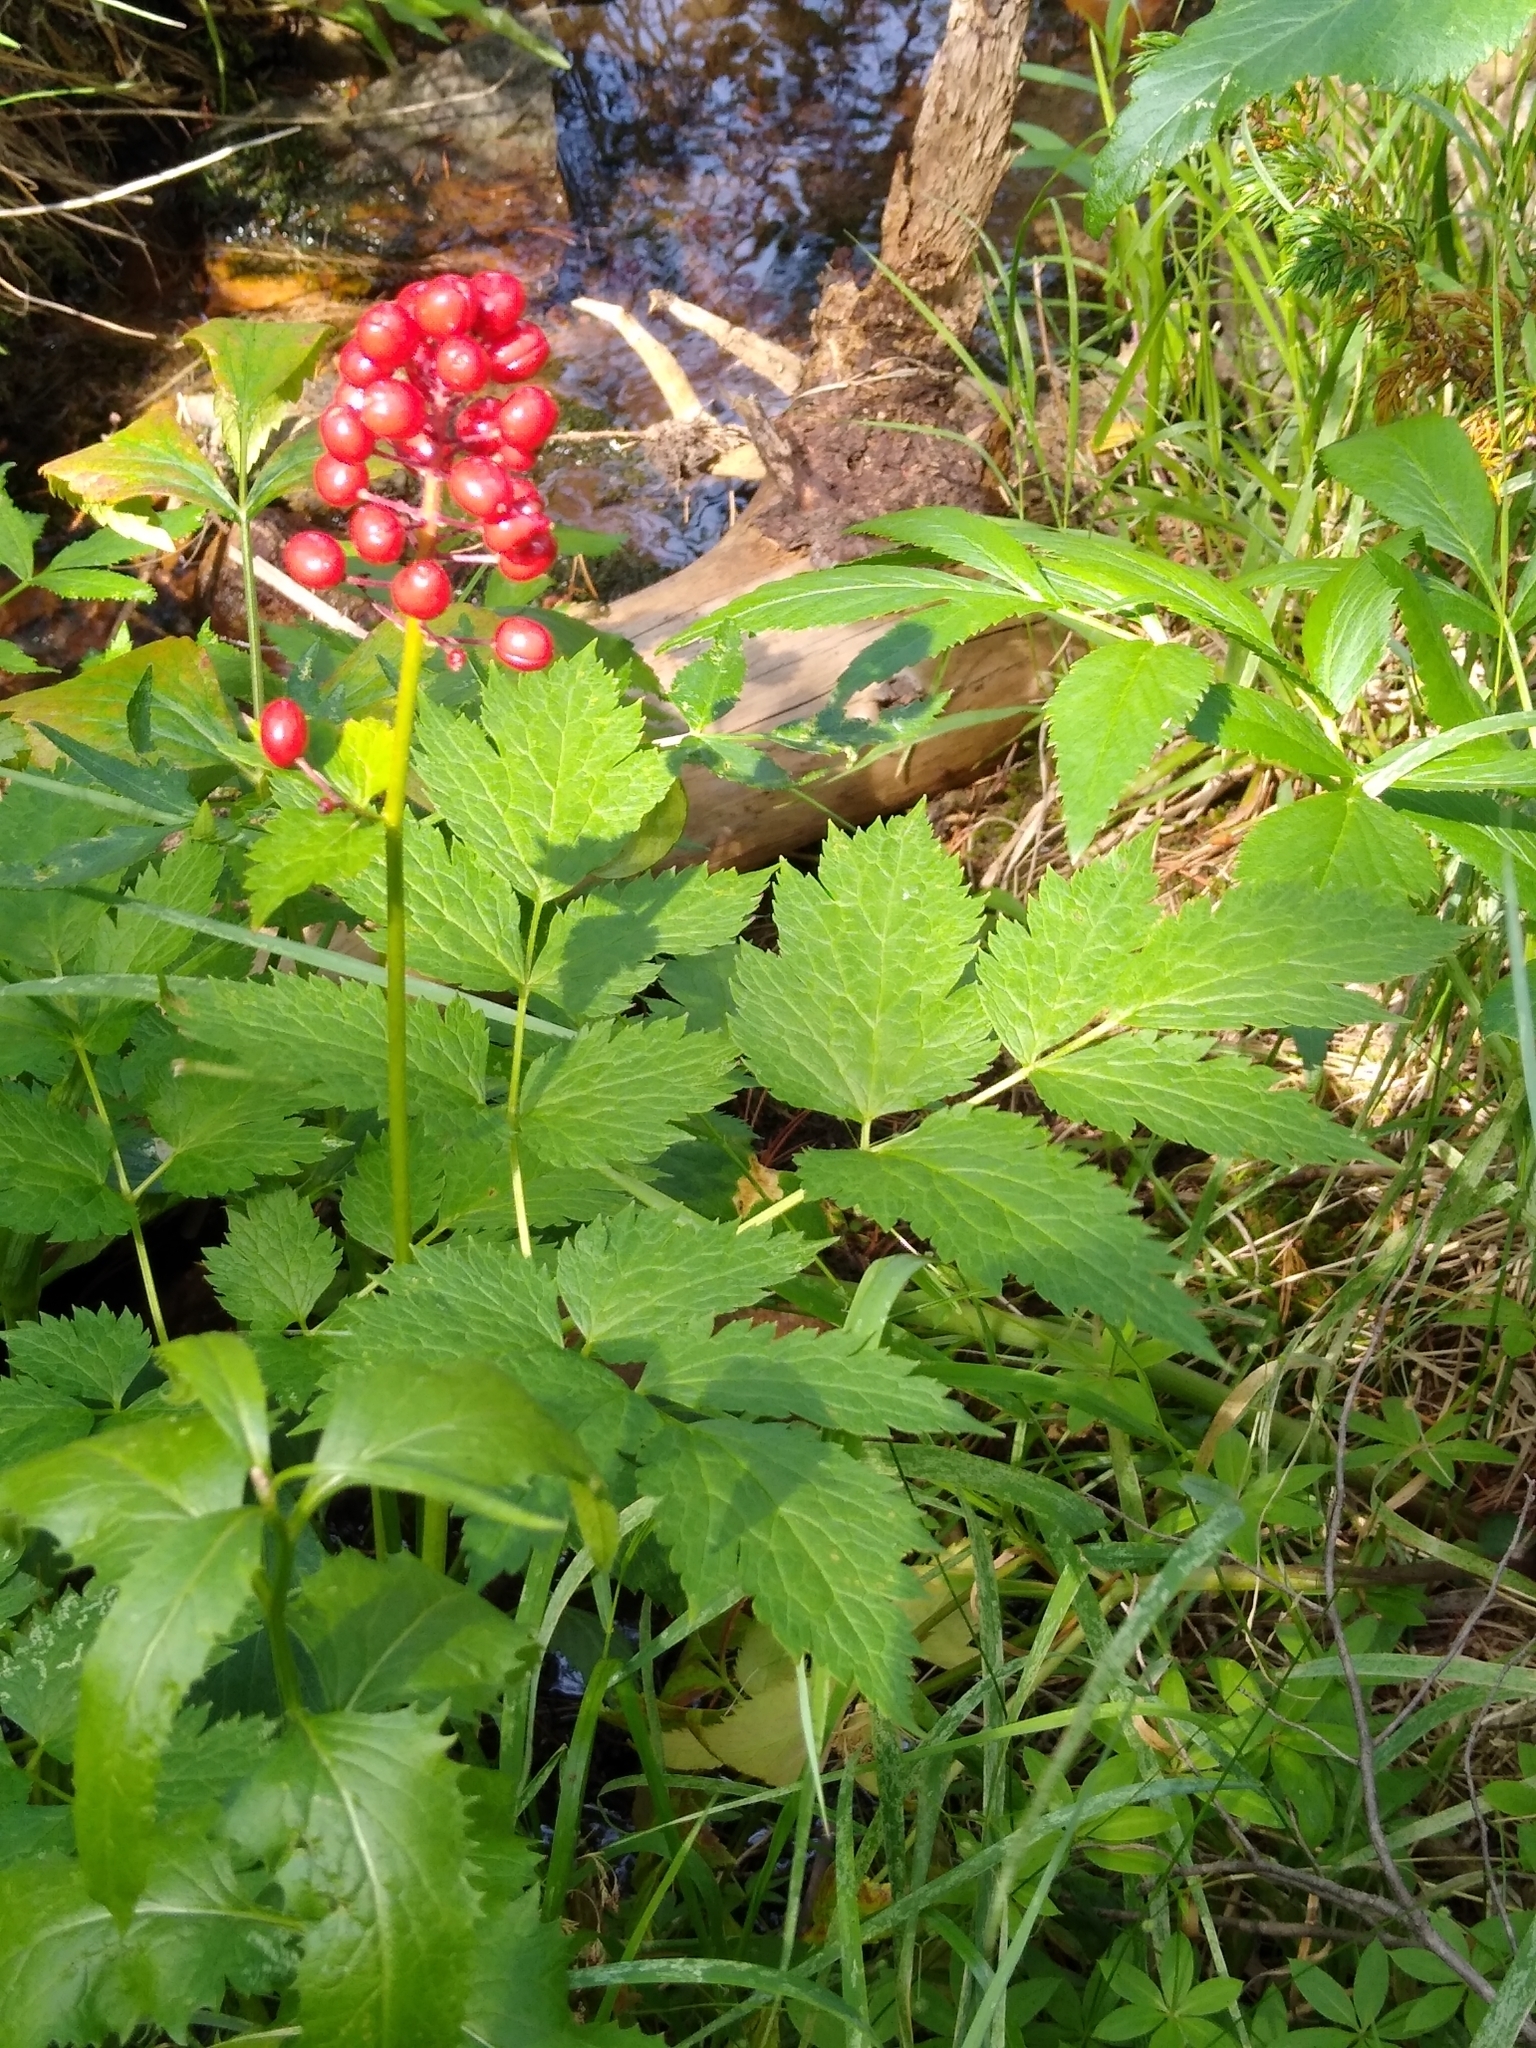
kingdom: Plantae
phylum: Tracheophyta
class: Magnoliopsida
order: Ranunculales
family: Ranunculaceae
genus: Actaea
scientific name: Actaea rubra
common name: Red baneberry
